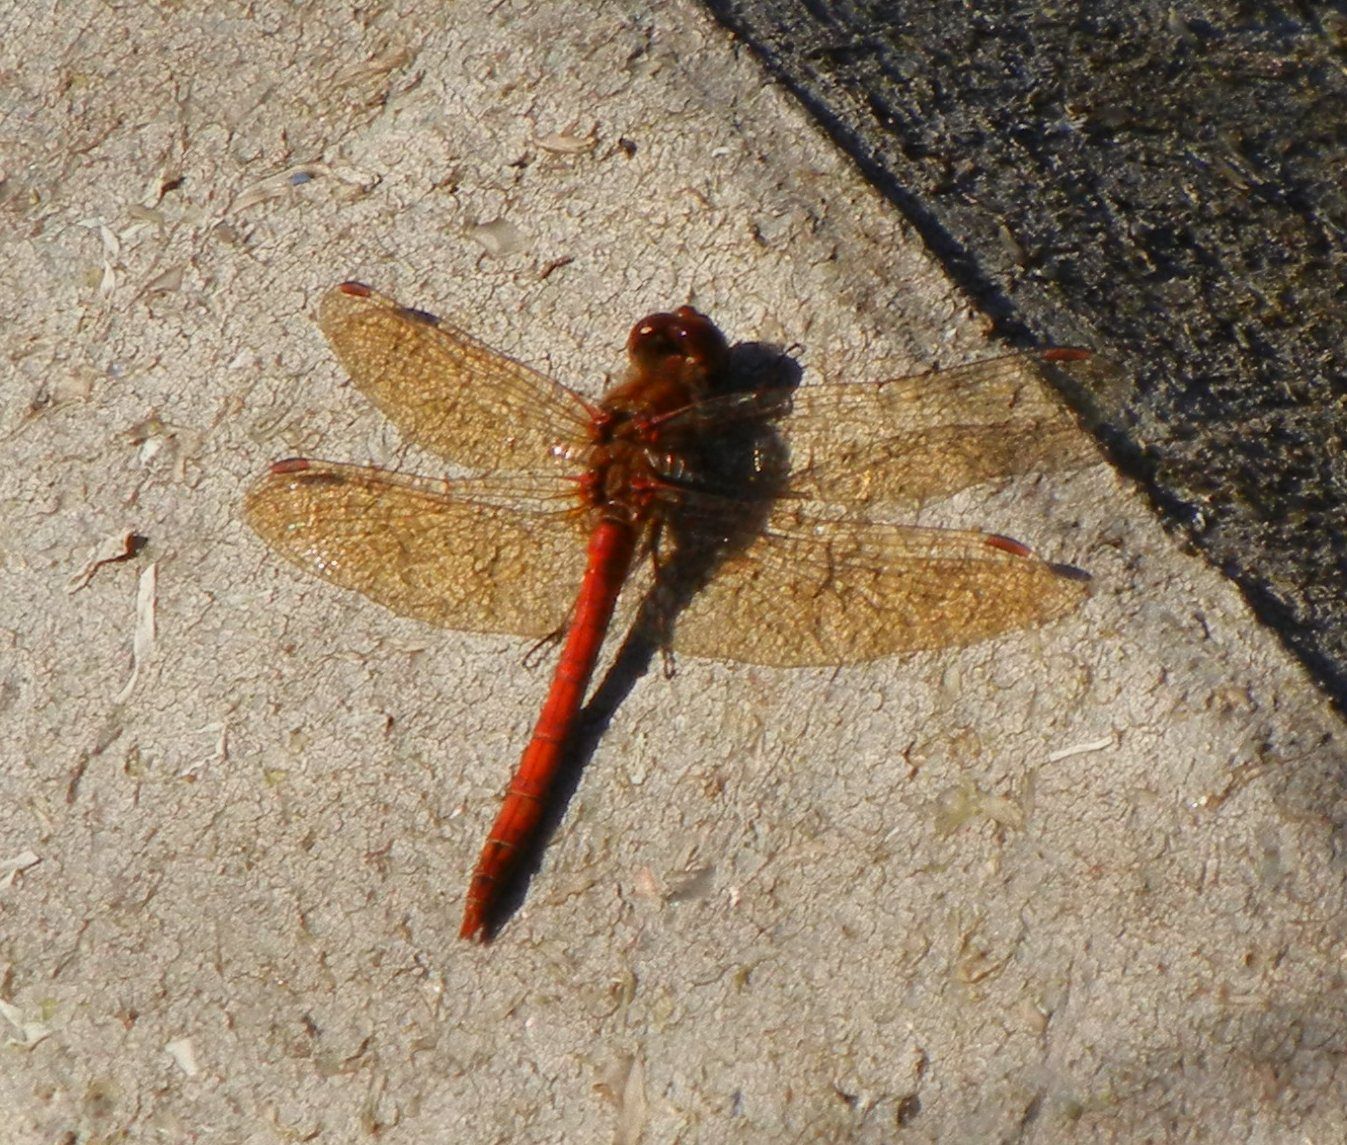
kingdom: Animalia
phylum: Arthropoda
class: Insecta
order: Odonata
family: Libellulidae
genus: Sympetrum
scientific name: Sympetrum striolatum
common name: Common darter
